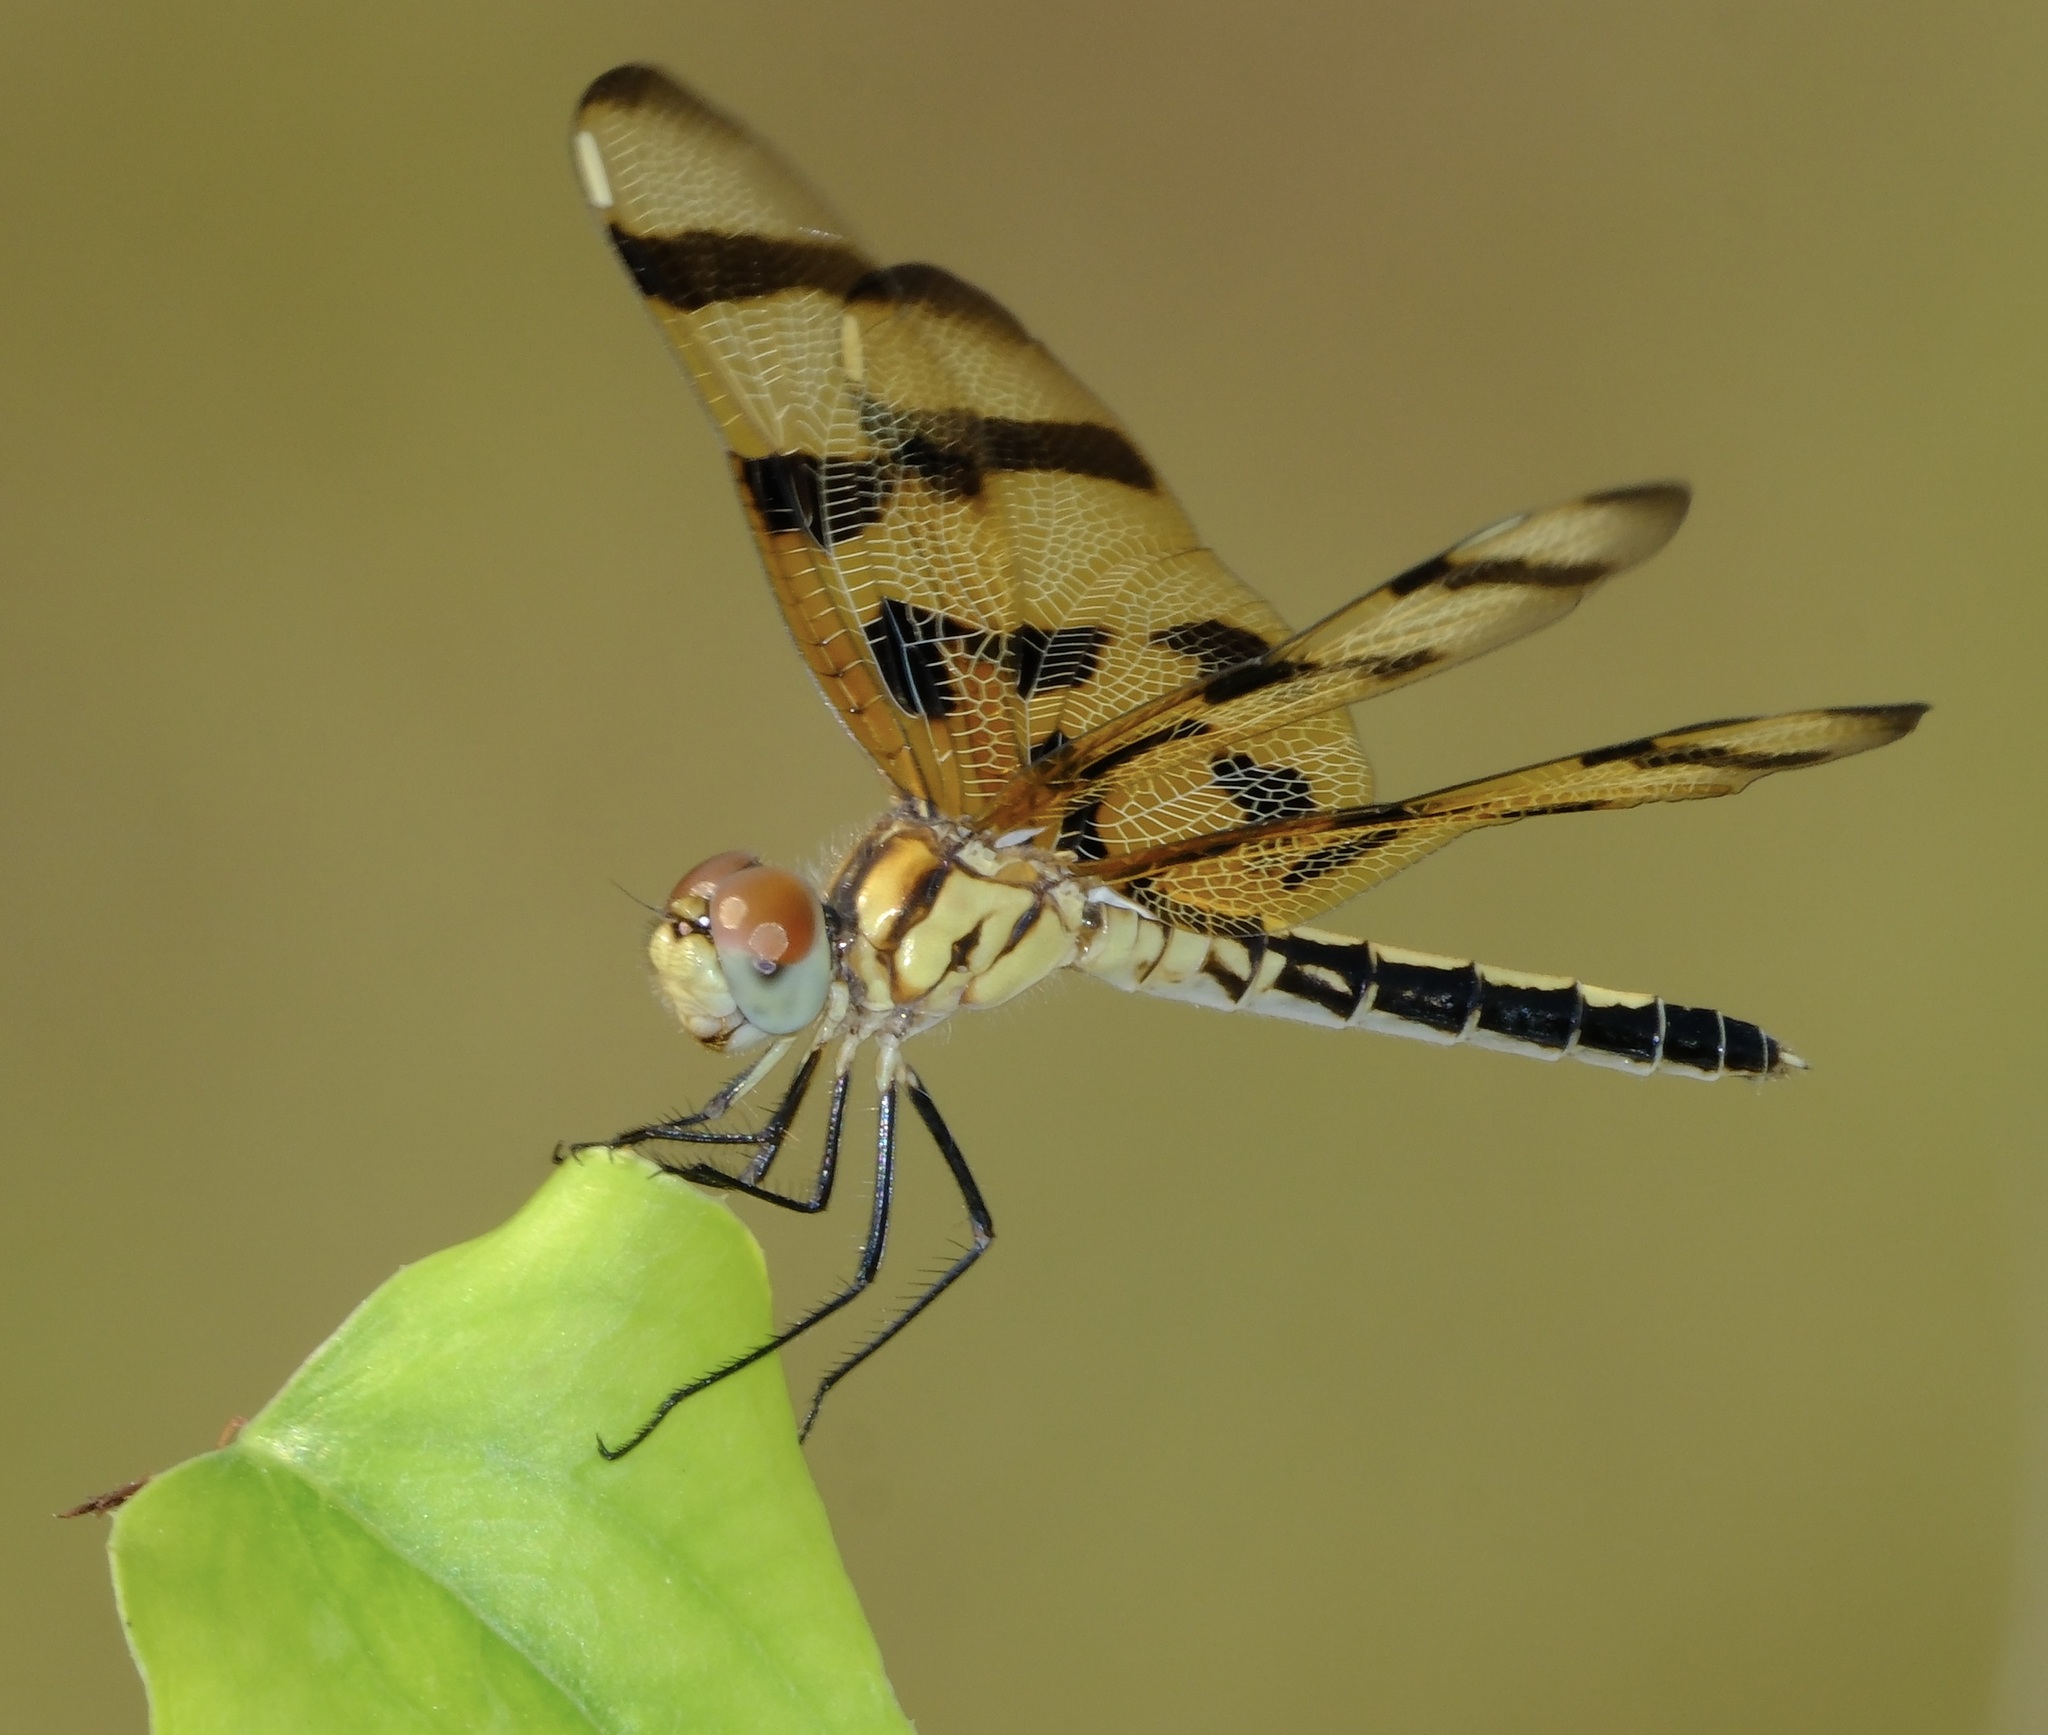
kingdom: Animalia
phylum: Arthropoda
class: Insecta
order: Odonata
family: Libellulidae
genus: Celithemis
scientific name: Celithemis eponina
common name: Halloween pennant
